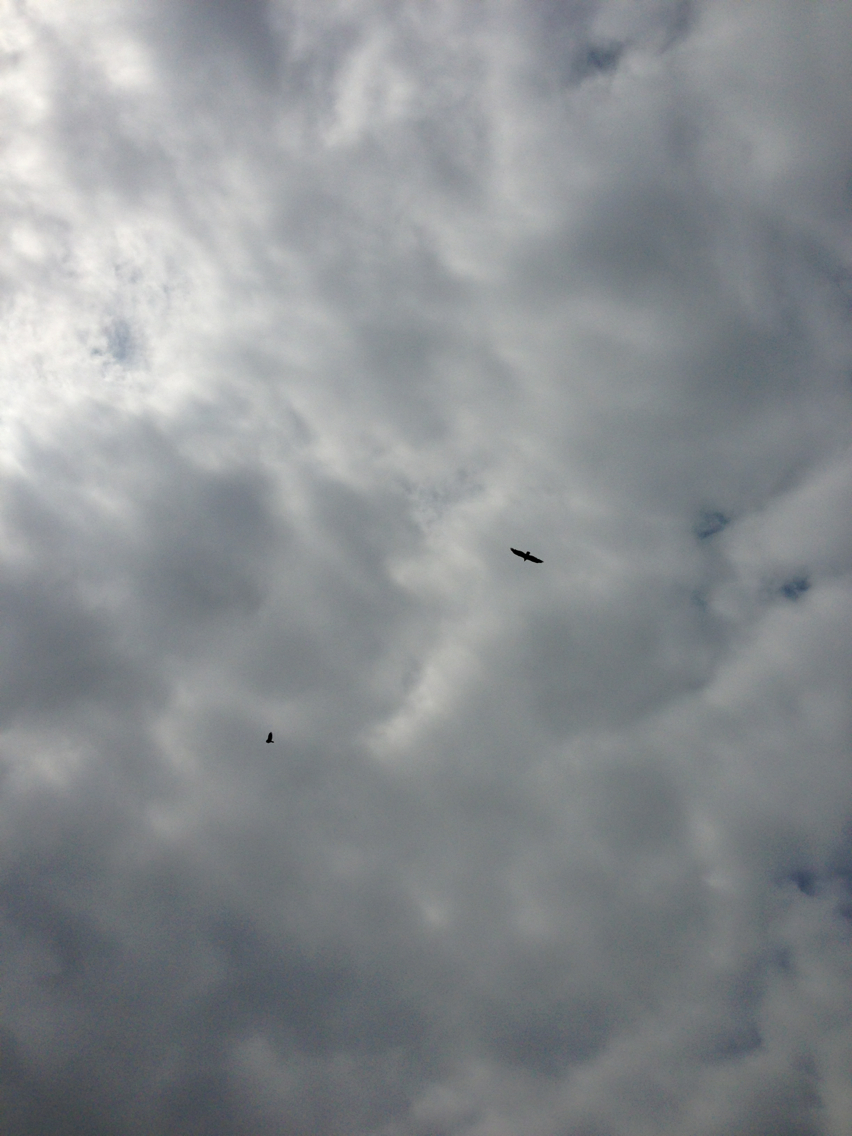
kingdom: Animalia
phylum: Chordata
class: Aves
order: Accipitriformes
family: Cathartidae
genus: Cathartes
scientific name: Cathartes aura
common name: Turkey vulture
